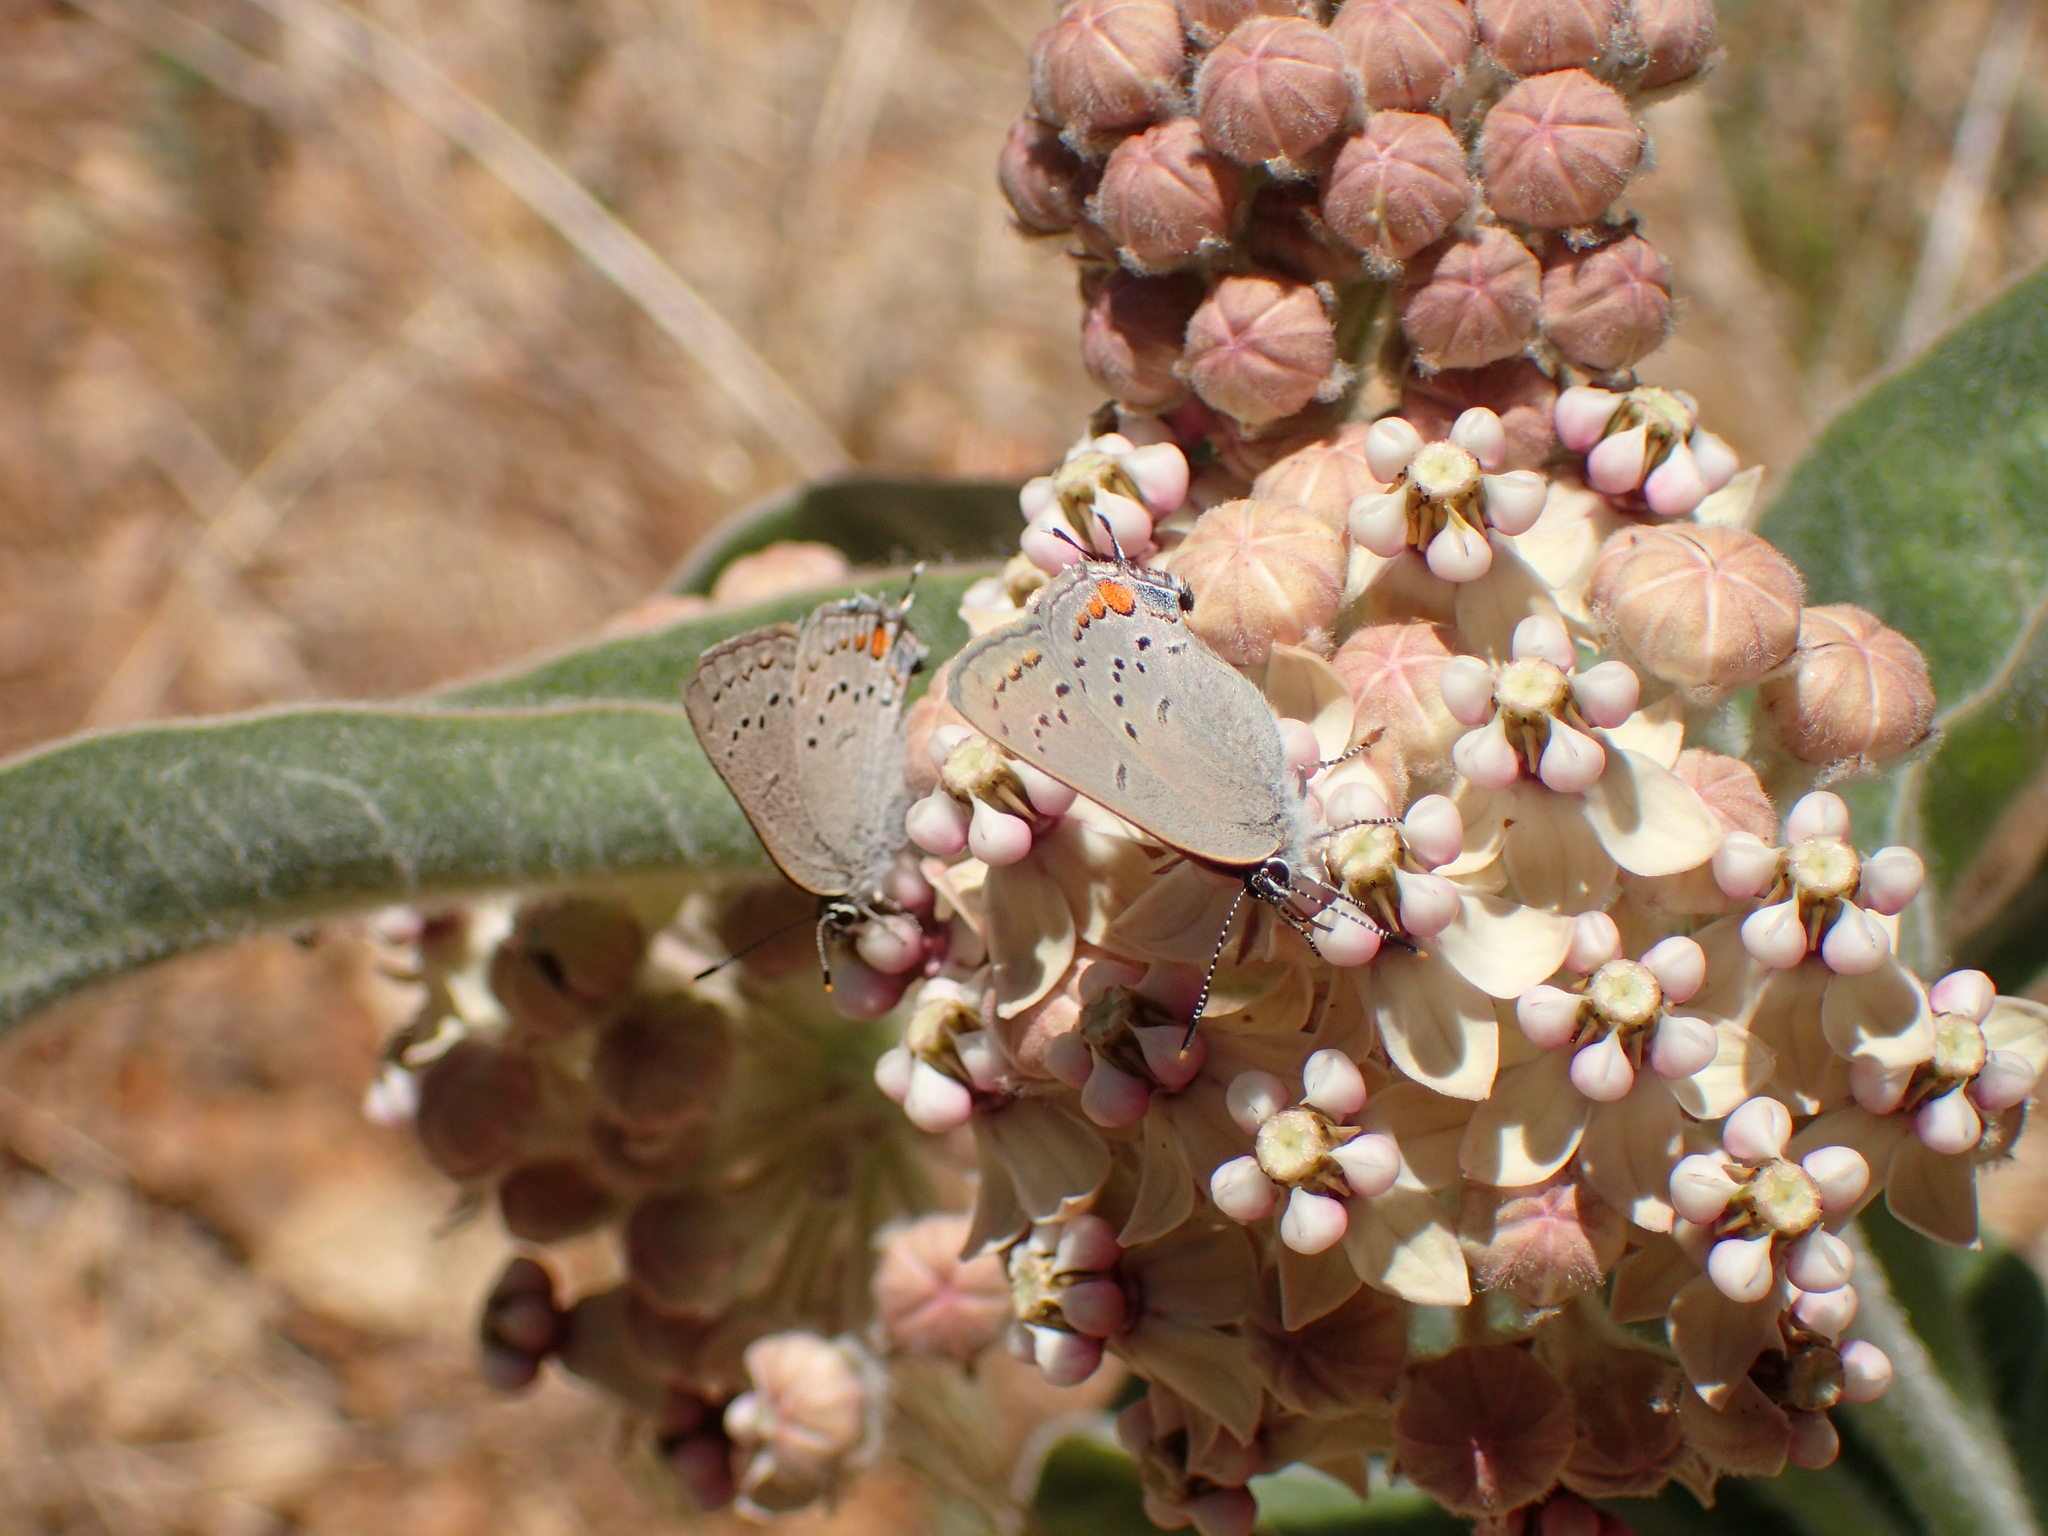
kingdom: Animalia
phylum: Arthropoda
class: Insecta
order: Lepidoptera
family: Lycaenidae
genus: Strymon
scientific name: Strymon acadica
